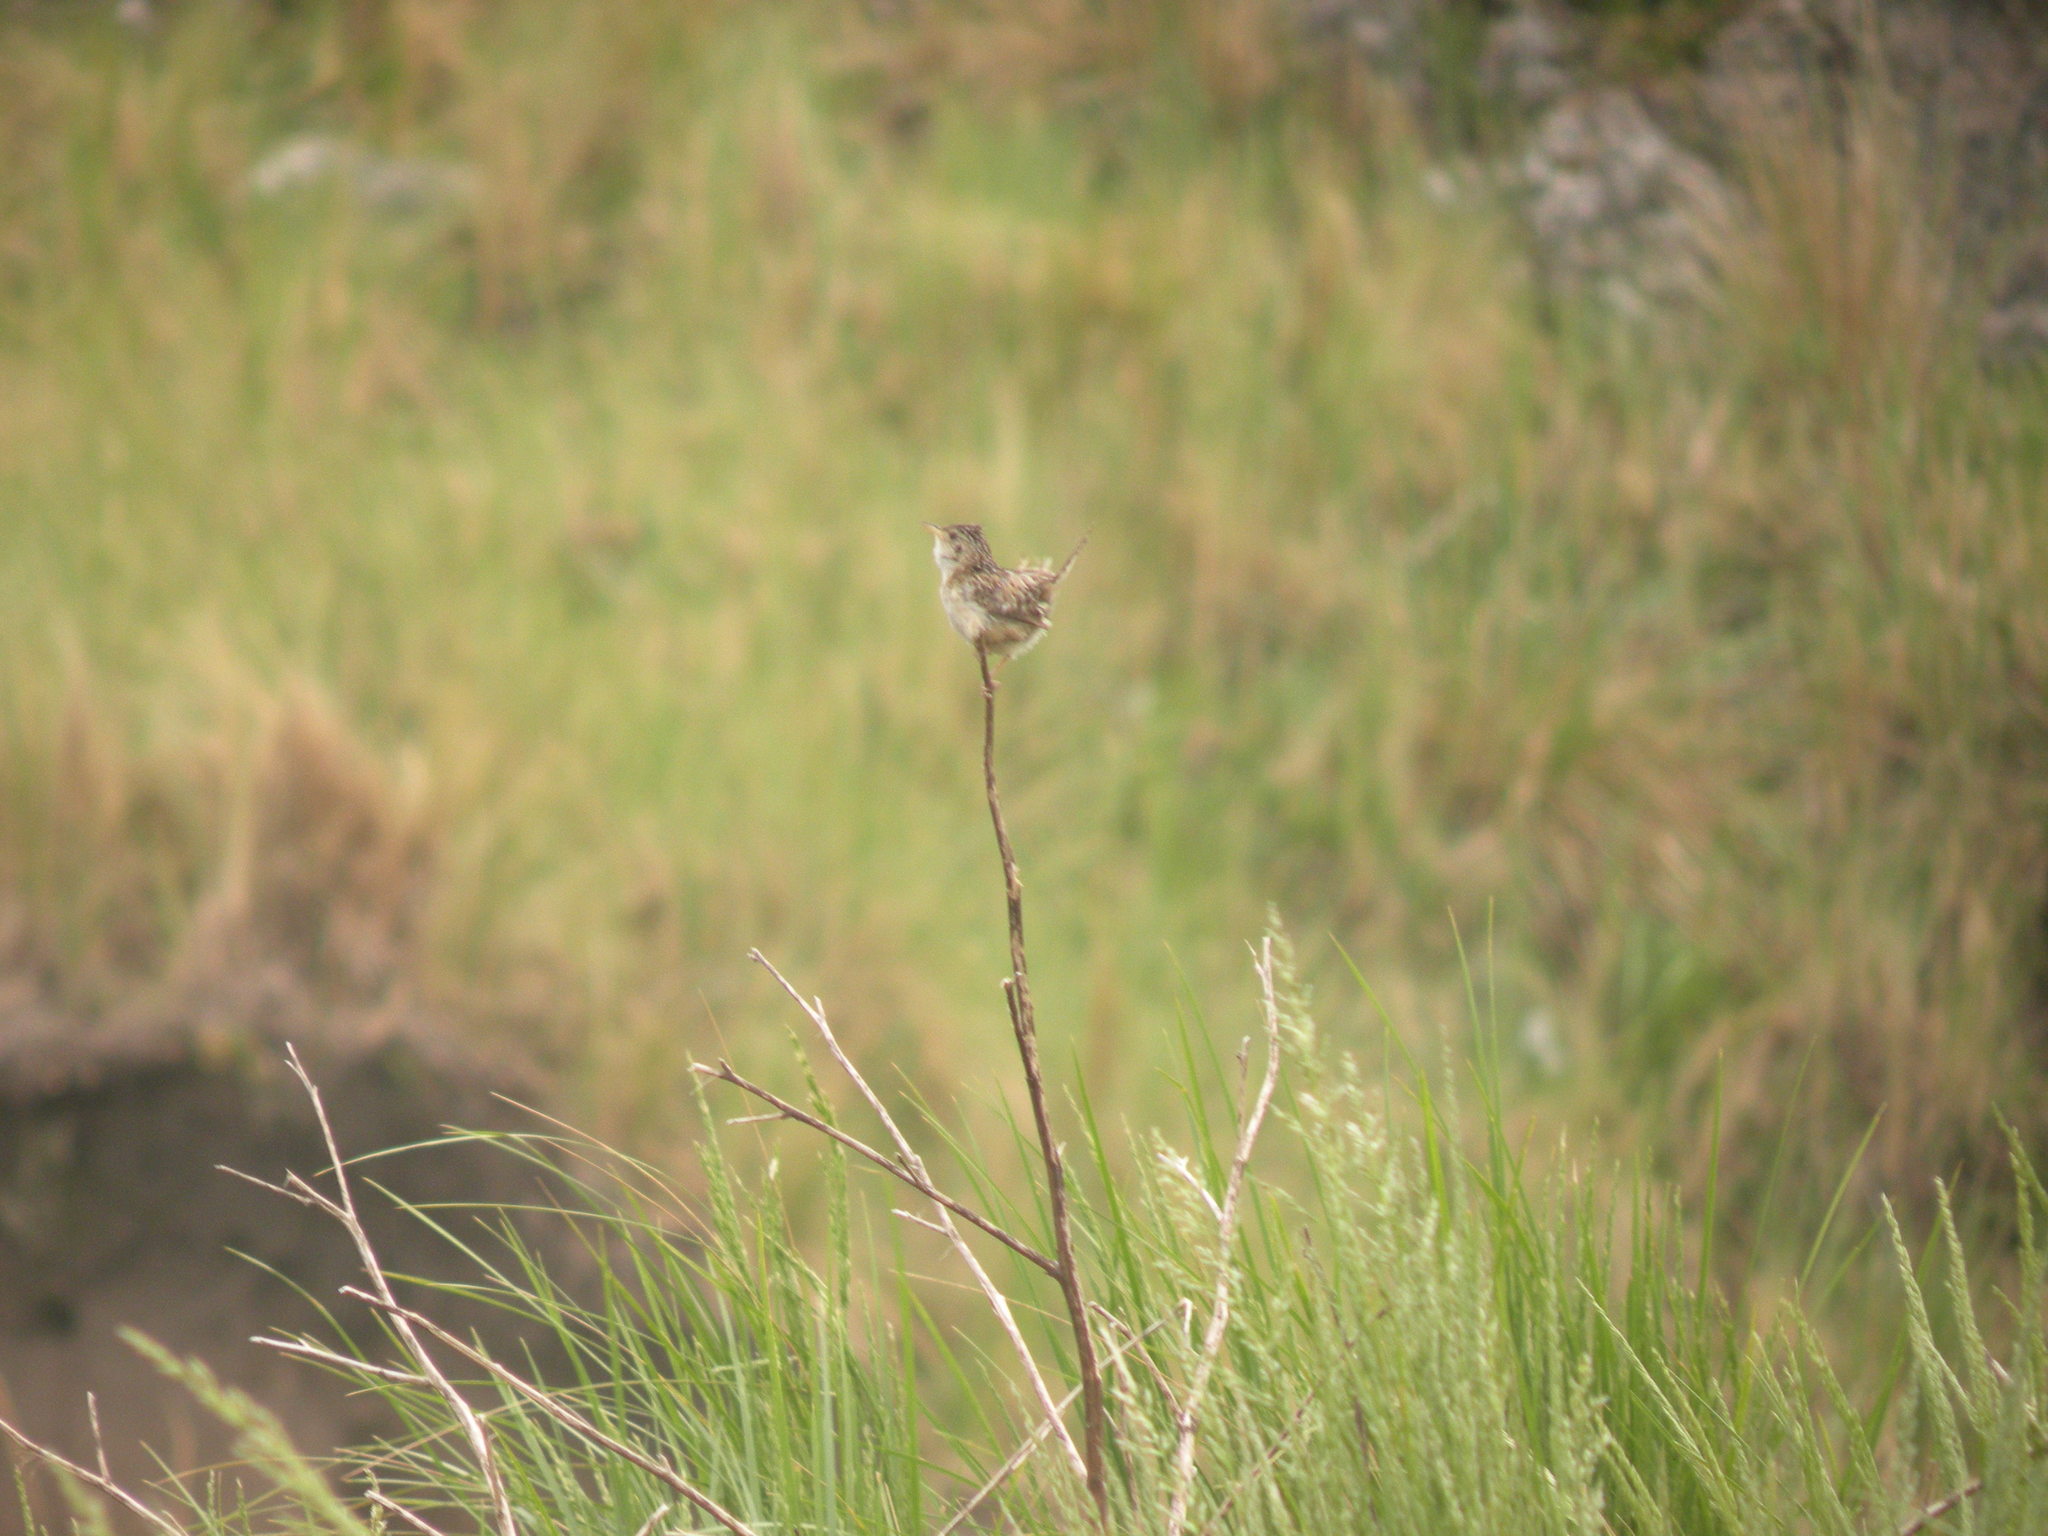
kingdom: Animalia
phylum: Chordata
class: Aves
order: Passeriformes
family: Troglodytidae
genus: Cistothorus
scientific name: Cistothorus platensis
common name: Sedge wren
